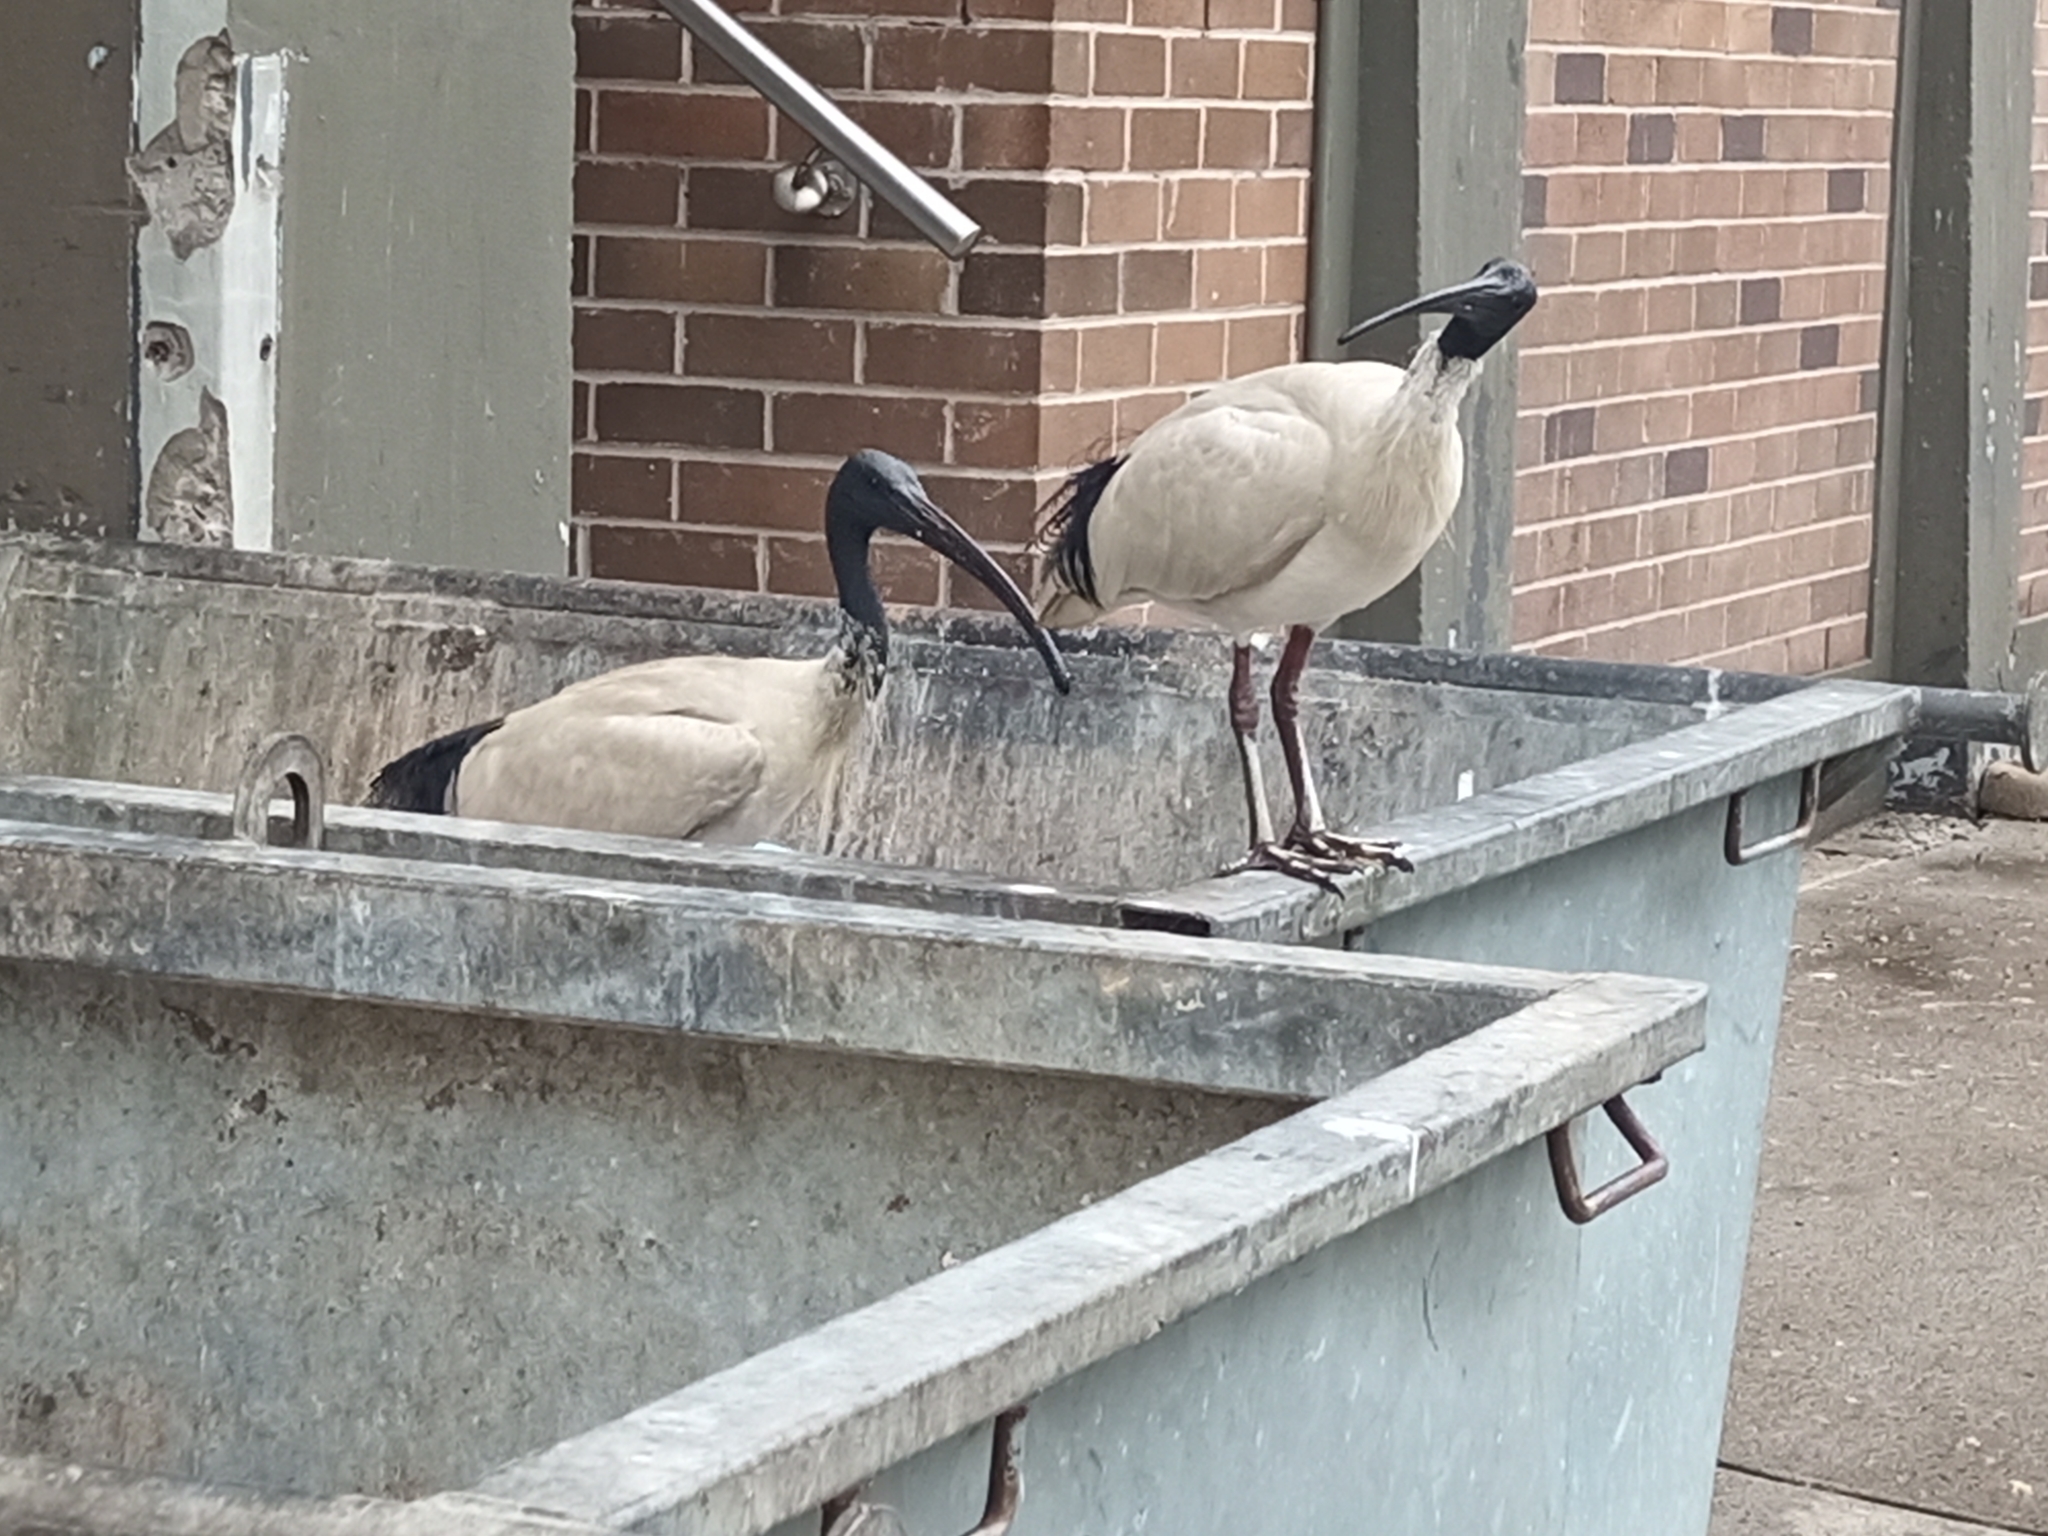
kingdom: Animalia
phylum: Chordata
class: Aves
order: Pelecaniformes
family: Threskiornithidae
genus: Threskiornis
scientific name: Threskiornis molucca
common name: Australian white ibis
